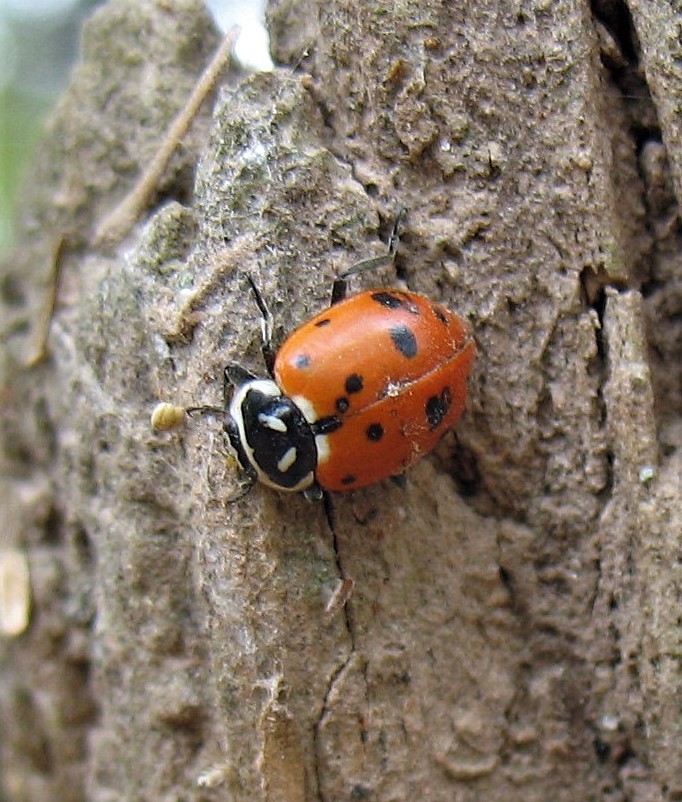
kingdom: Animalia
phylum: Arthropoda
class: Insecta
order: Coleoptera
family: Coccinellidae
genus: Hippodamia
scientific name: Hippodamia convergens
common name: Convergent lady beetle
